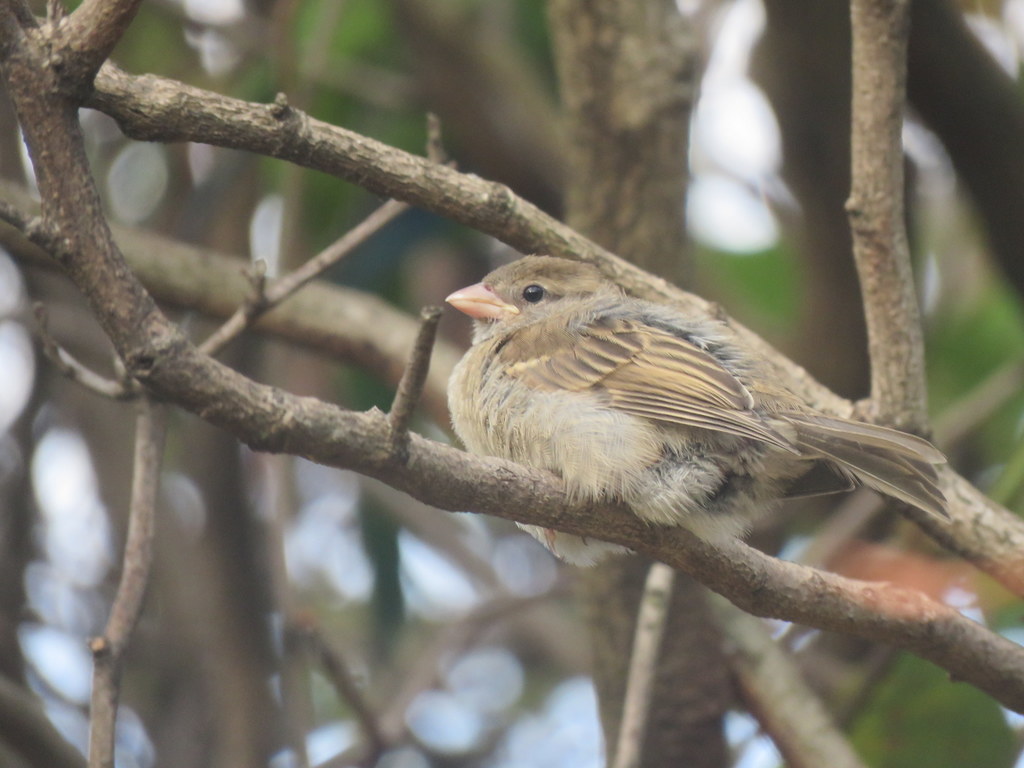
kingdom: Animalia
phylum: Chordata
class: Aves
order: Passeriformes
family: Passeridae
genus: Passer
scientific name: Passer domesticus
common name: House sparrow
